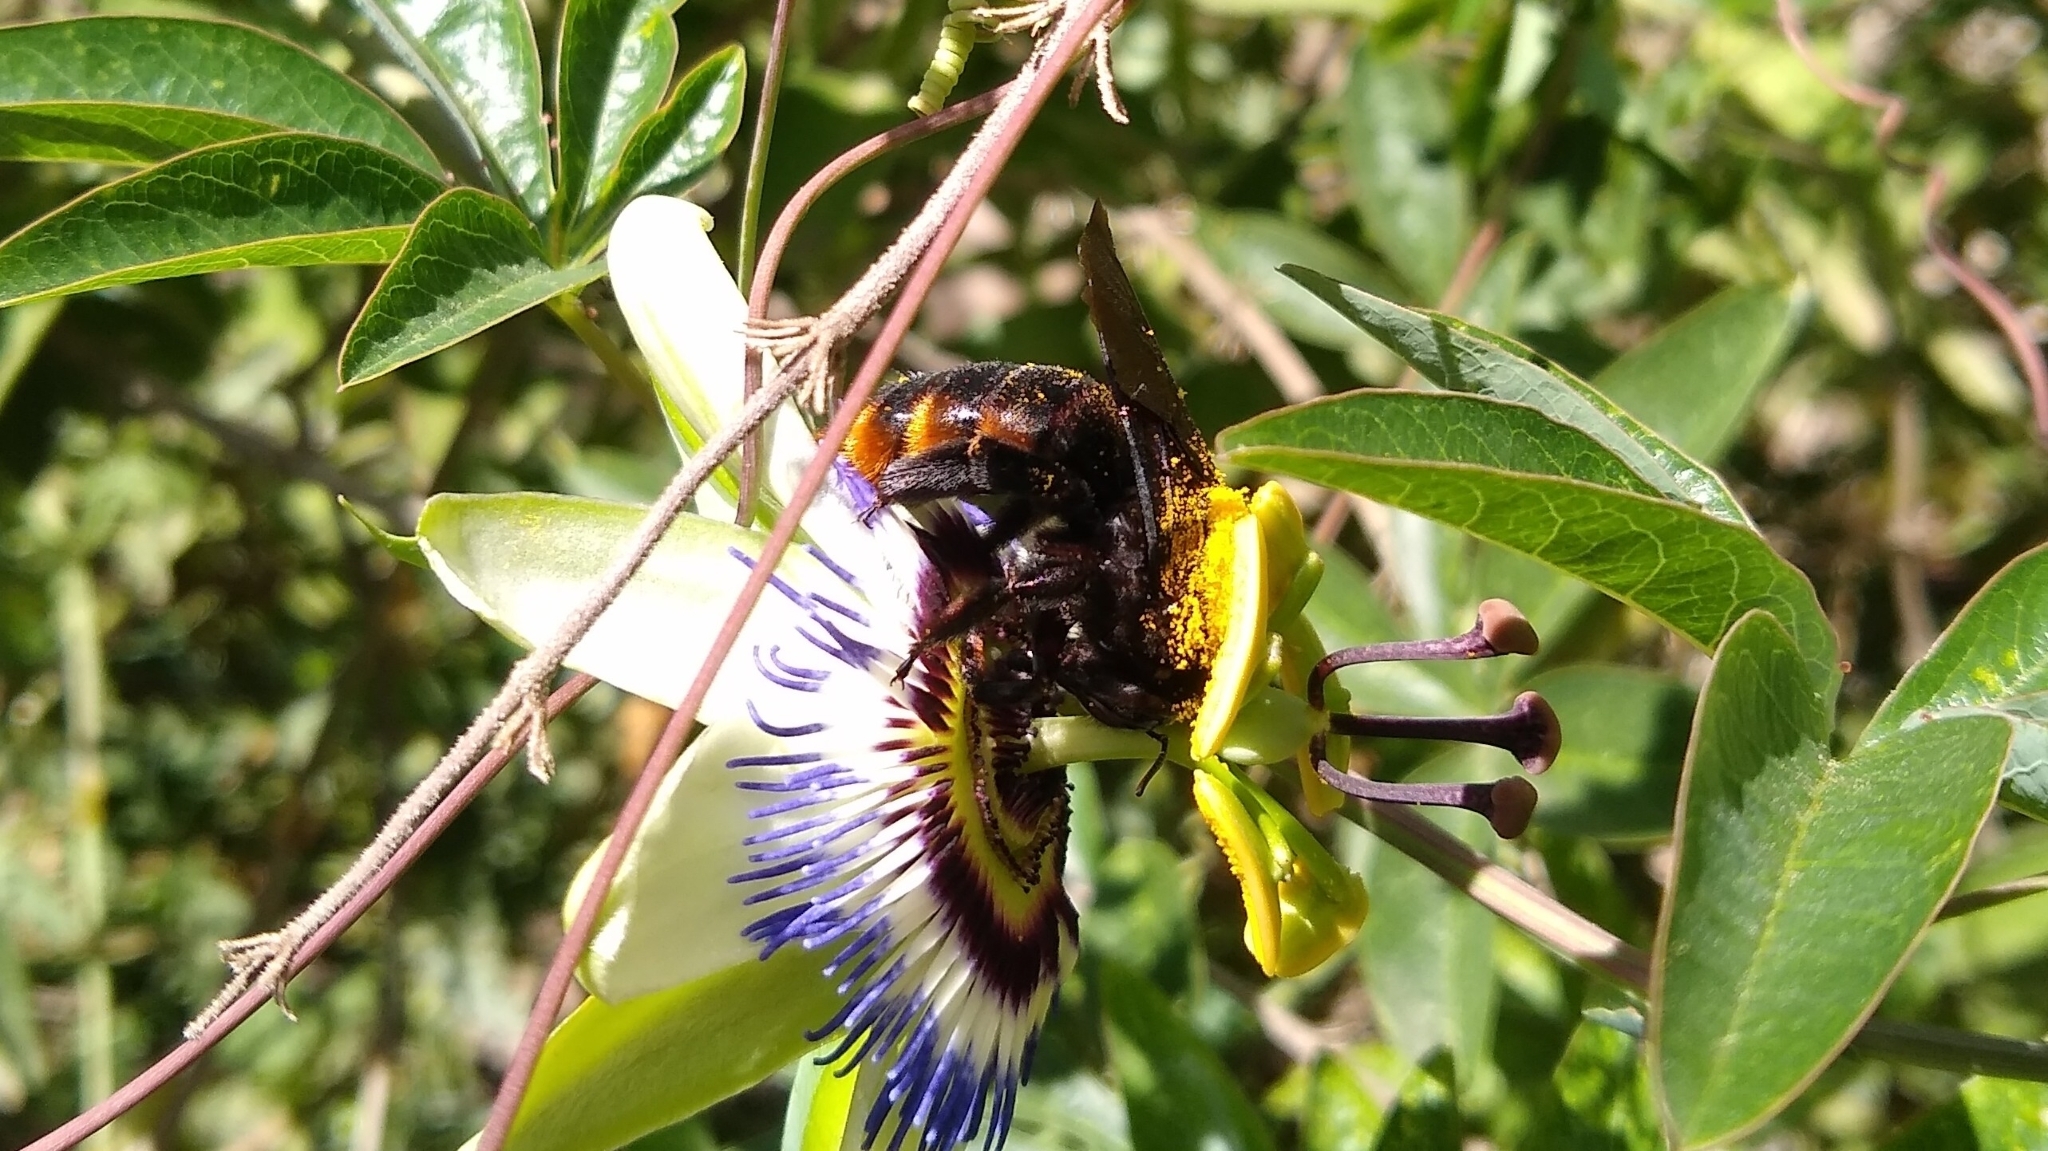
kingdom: Animalia
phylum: Arthropoda
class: Insecta
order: Hymenoptera
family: Apidae
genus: Xylocopa
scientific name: Xylocopa augusti
